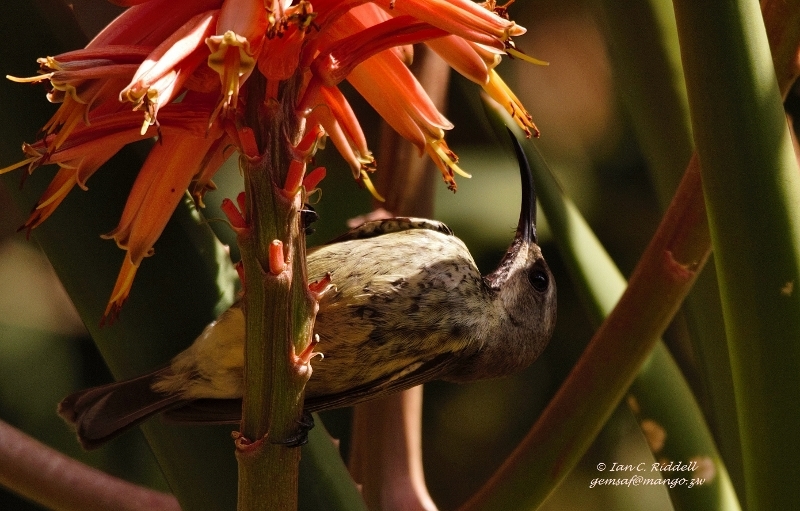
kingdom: Animalia
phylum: Chordata
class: Aves
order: Passeriformes
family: Nectariniidae
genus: Chalcomitra
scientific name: Chalcomitra amethystina
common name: Amethyst sunbird
